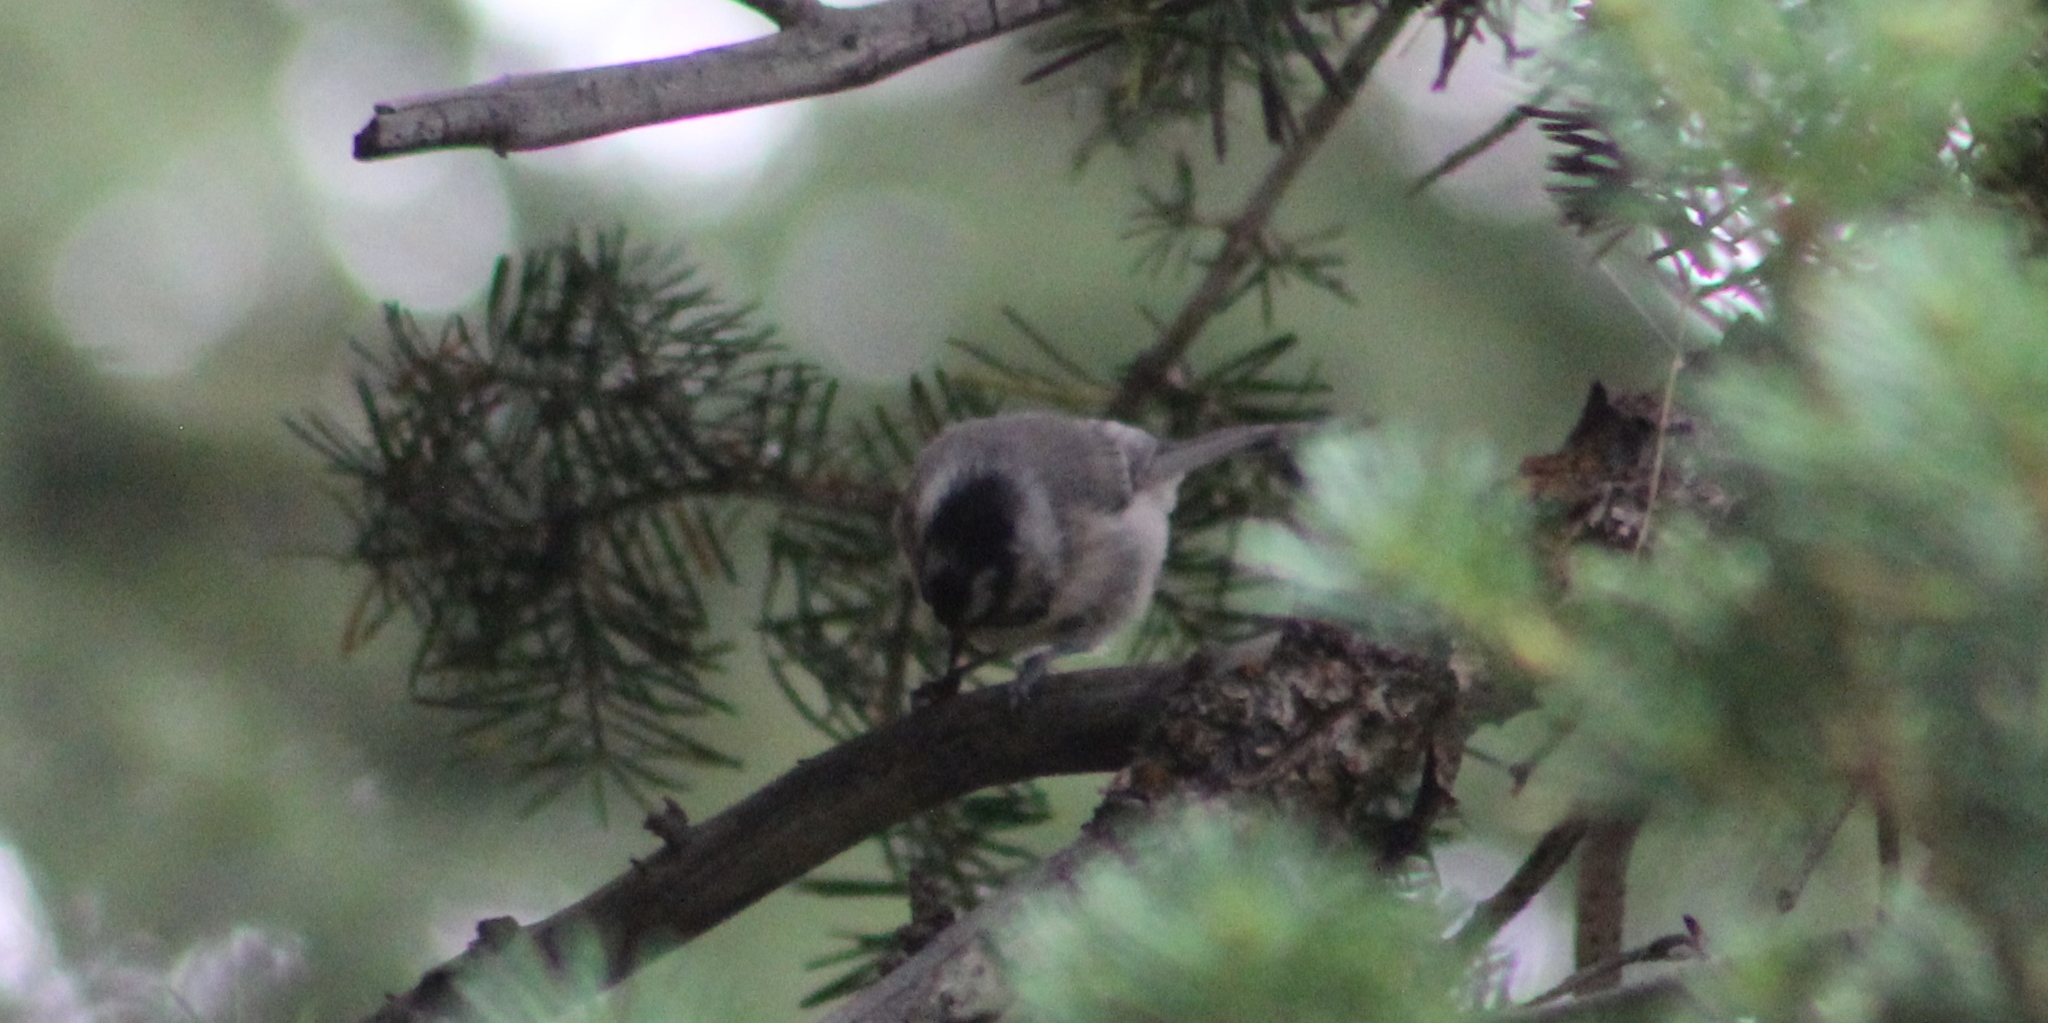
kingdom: Animalia
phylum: Chordata
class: Aves
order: Passeriformes
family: Paridae
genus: Poecile
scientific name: Poecile gambeli
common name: Mountain chickadee
